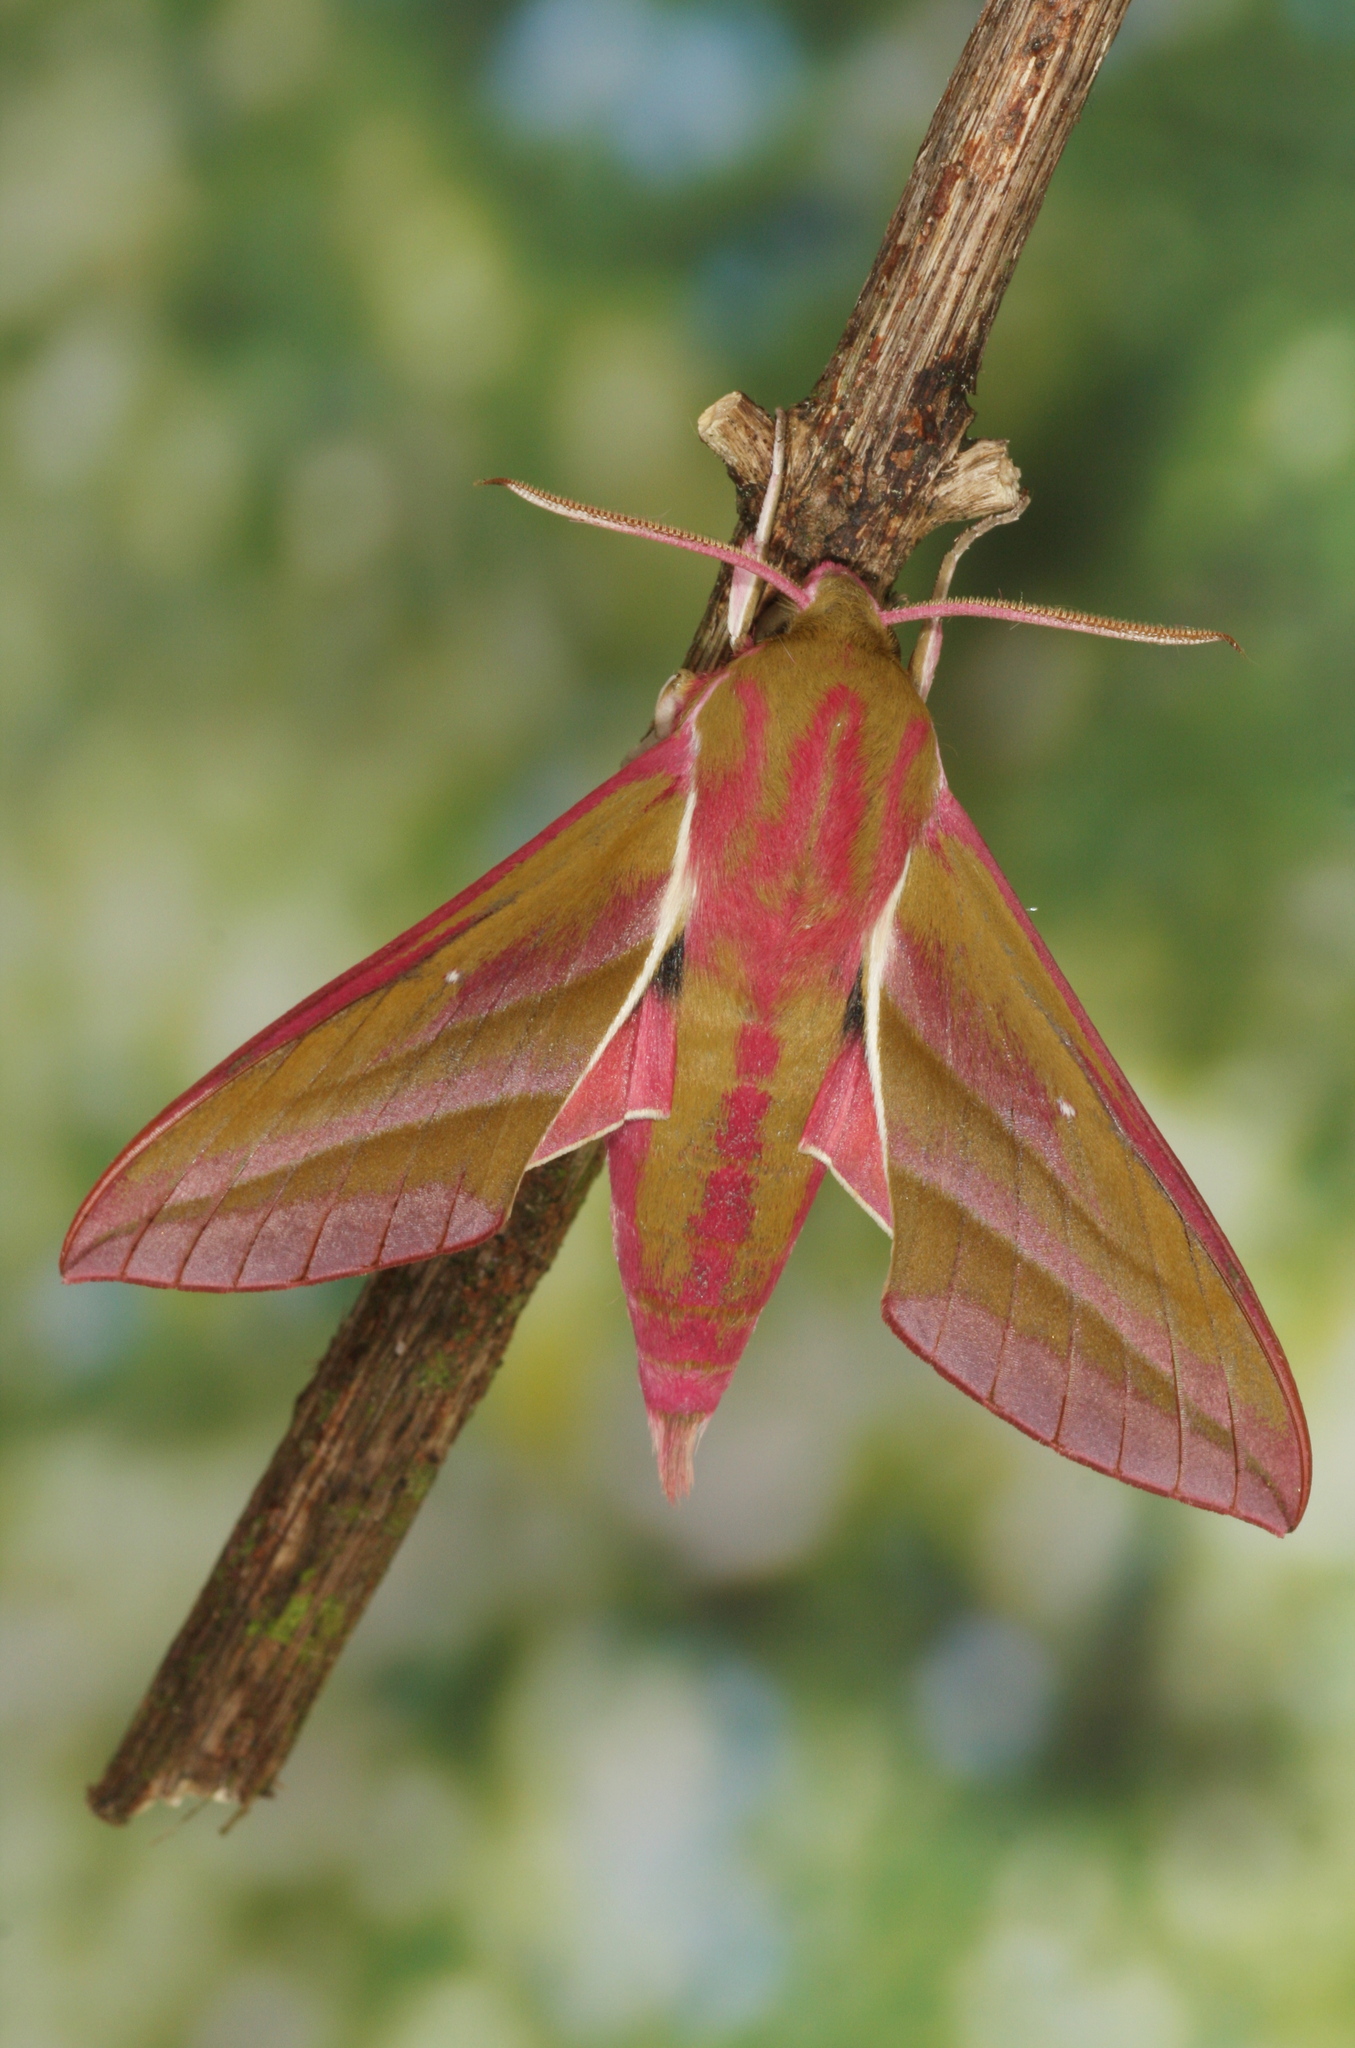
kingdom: Animalia
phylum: Arthropoda
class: Insecta
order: Lepidoptera
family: Sphingidae
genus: Deilephila
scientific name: Deilephila elpenor
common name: Elephant hawk-moth
